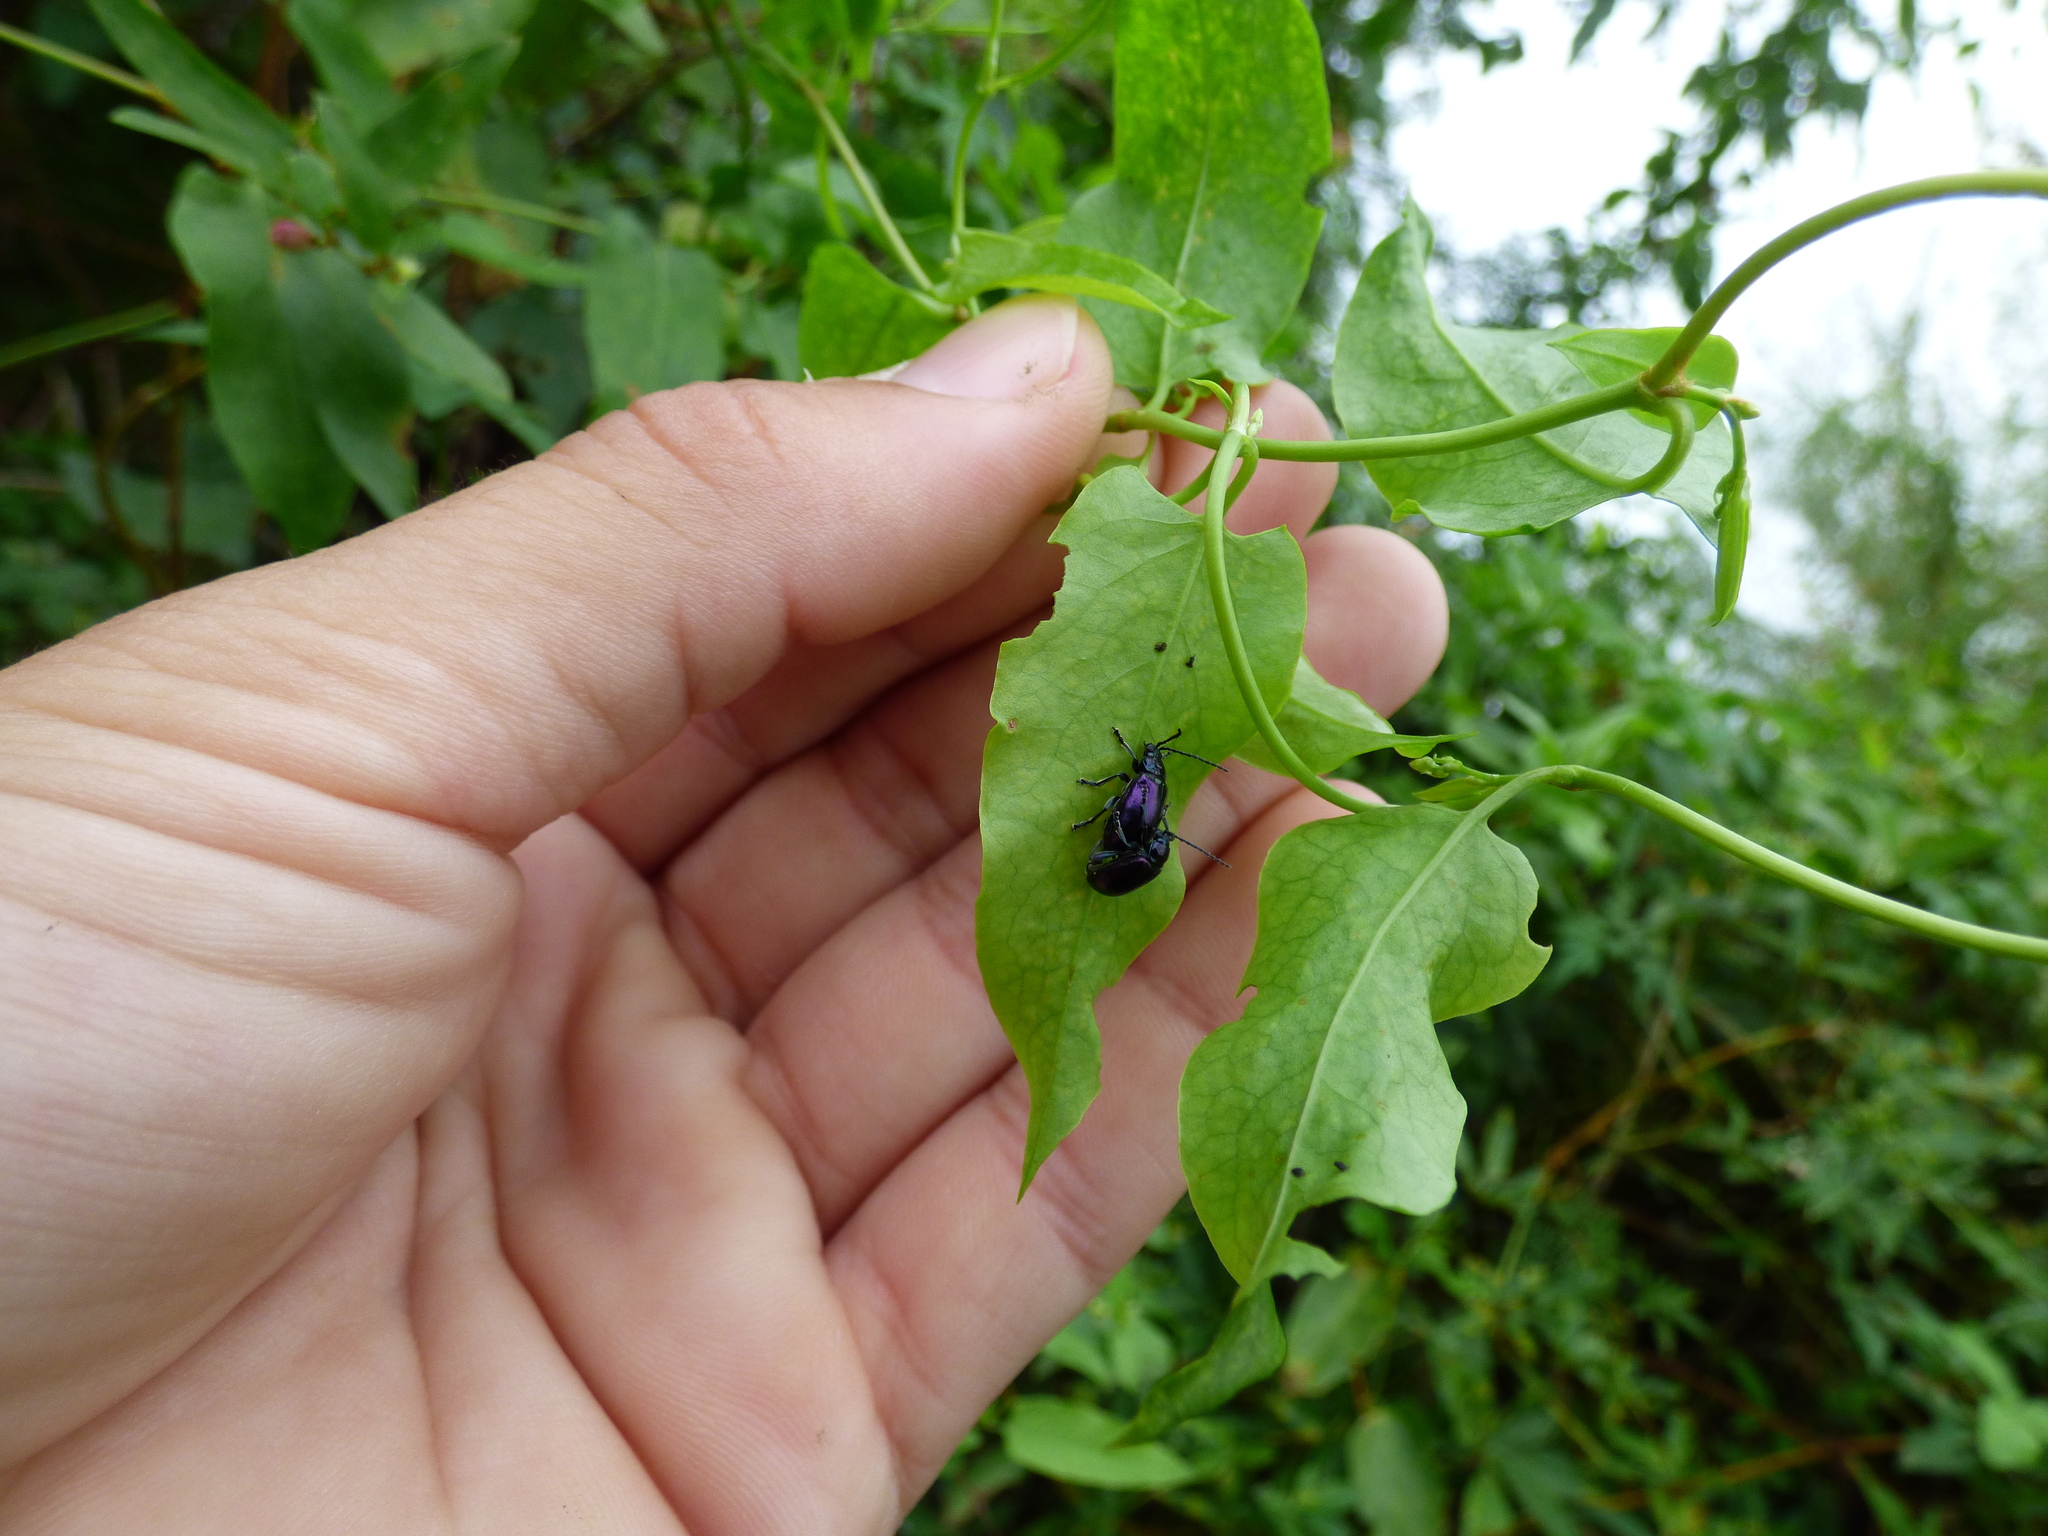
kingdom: Animalia
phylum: Arthropoda
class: Insecta
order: Coleoptera
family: Chrysomelidae
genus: Macrohaltica
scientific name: Macrohaltica
